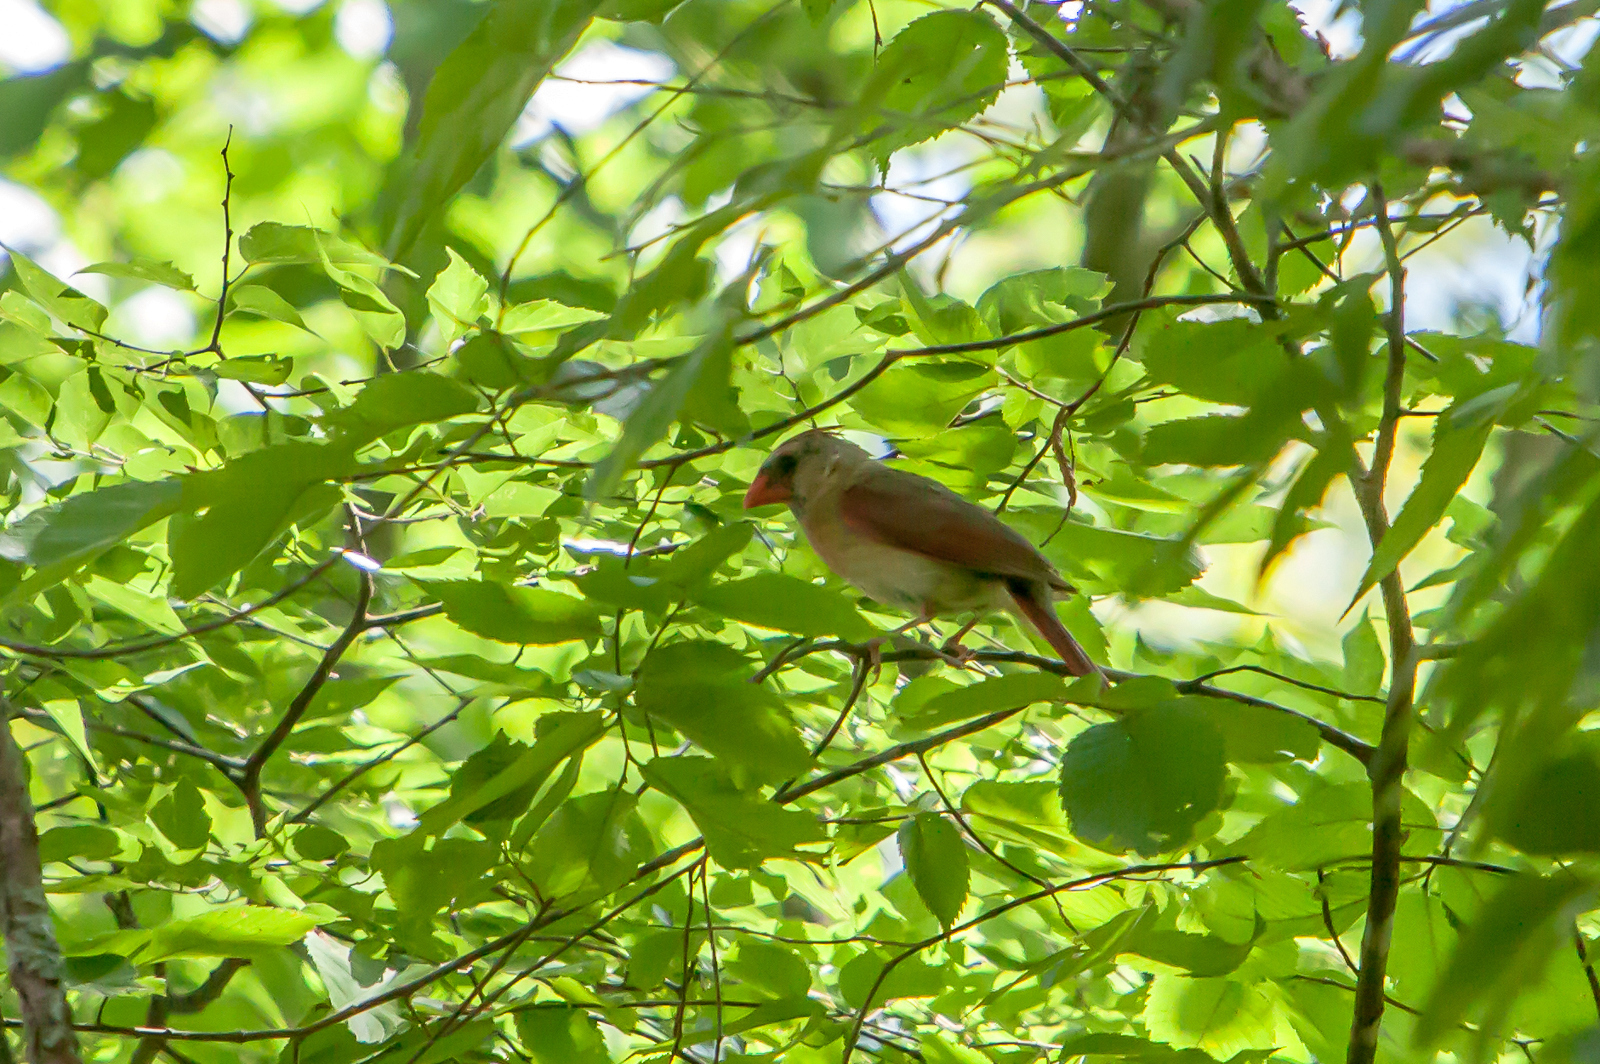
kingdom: Animalia
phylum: Chordata
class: Aves
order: Passeriformes
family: Cardinalidae
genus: Cardinalis
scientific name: Cardinalis cardinalis
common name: Northern cardinal
